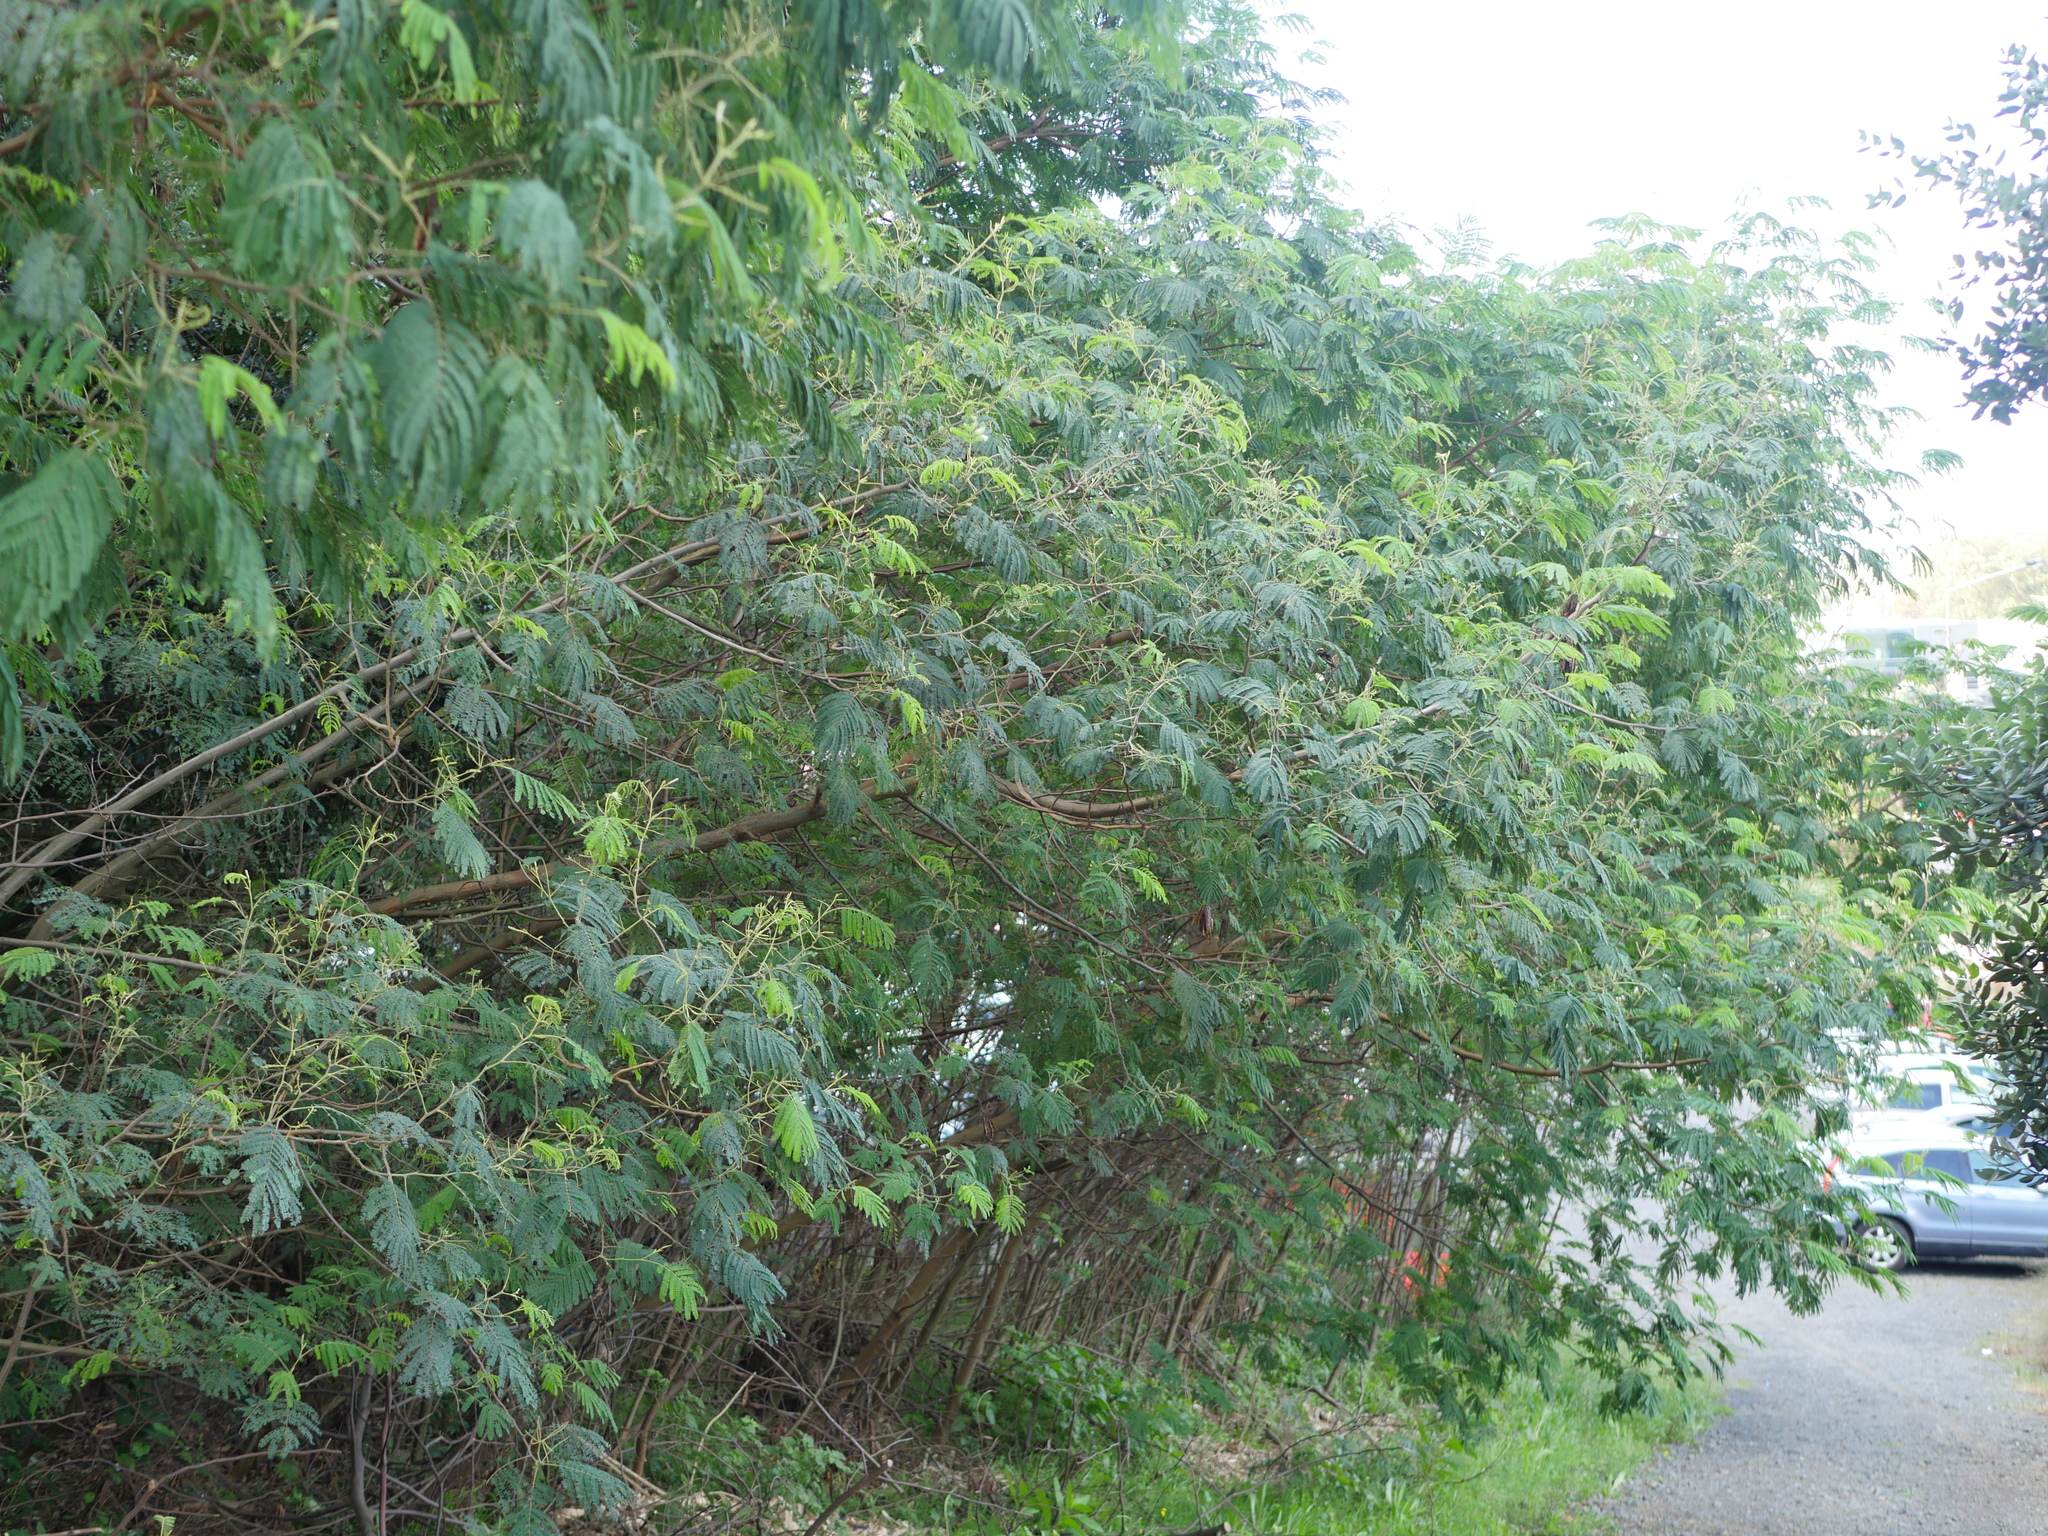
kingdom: Plantae
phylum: Tracheophyta
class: Magnoliopsida
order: Fabales
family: Fabaceae
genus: Paraserianthes
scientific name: Paraserianthes lophantha
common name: Plume albizia
